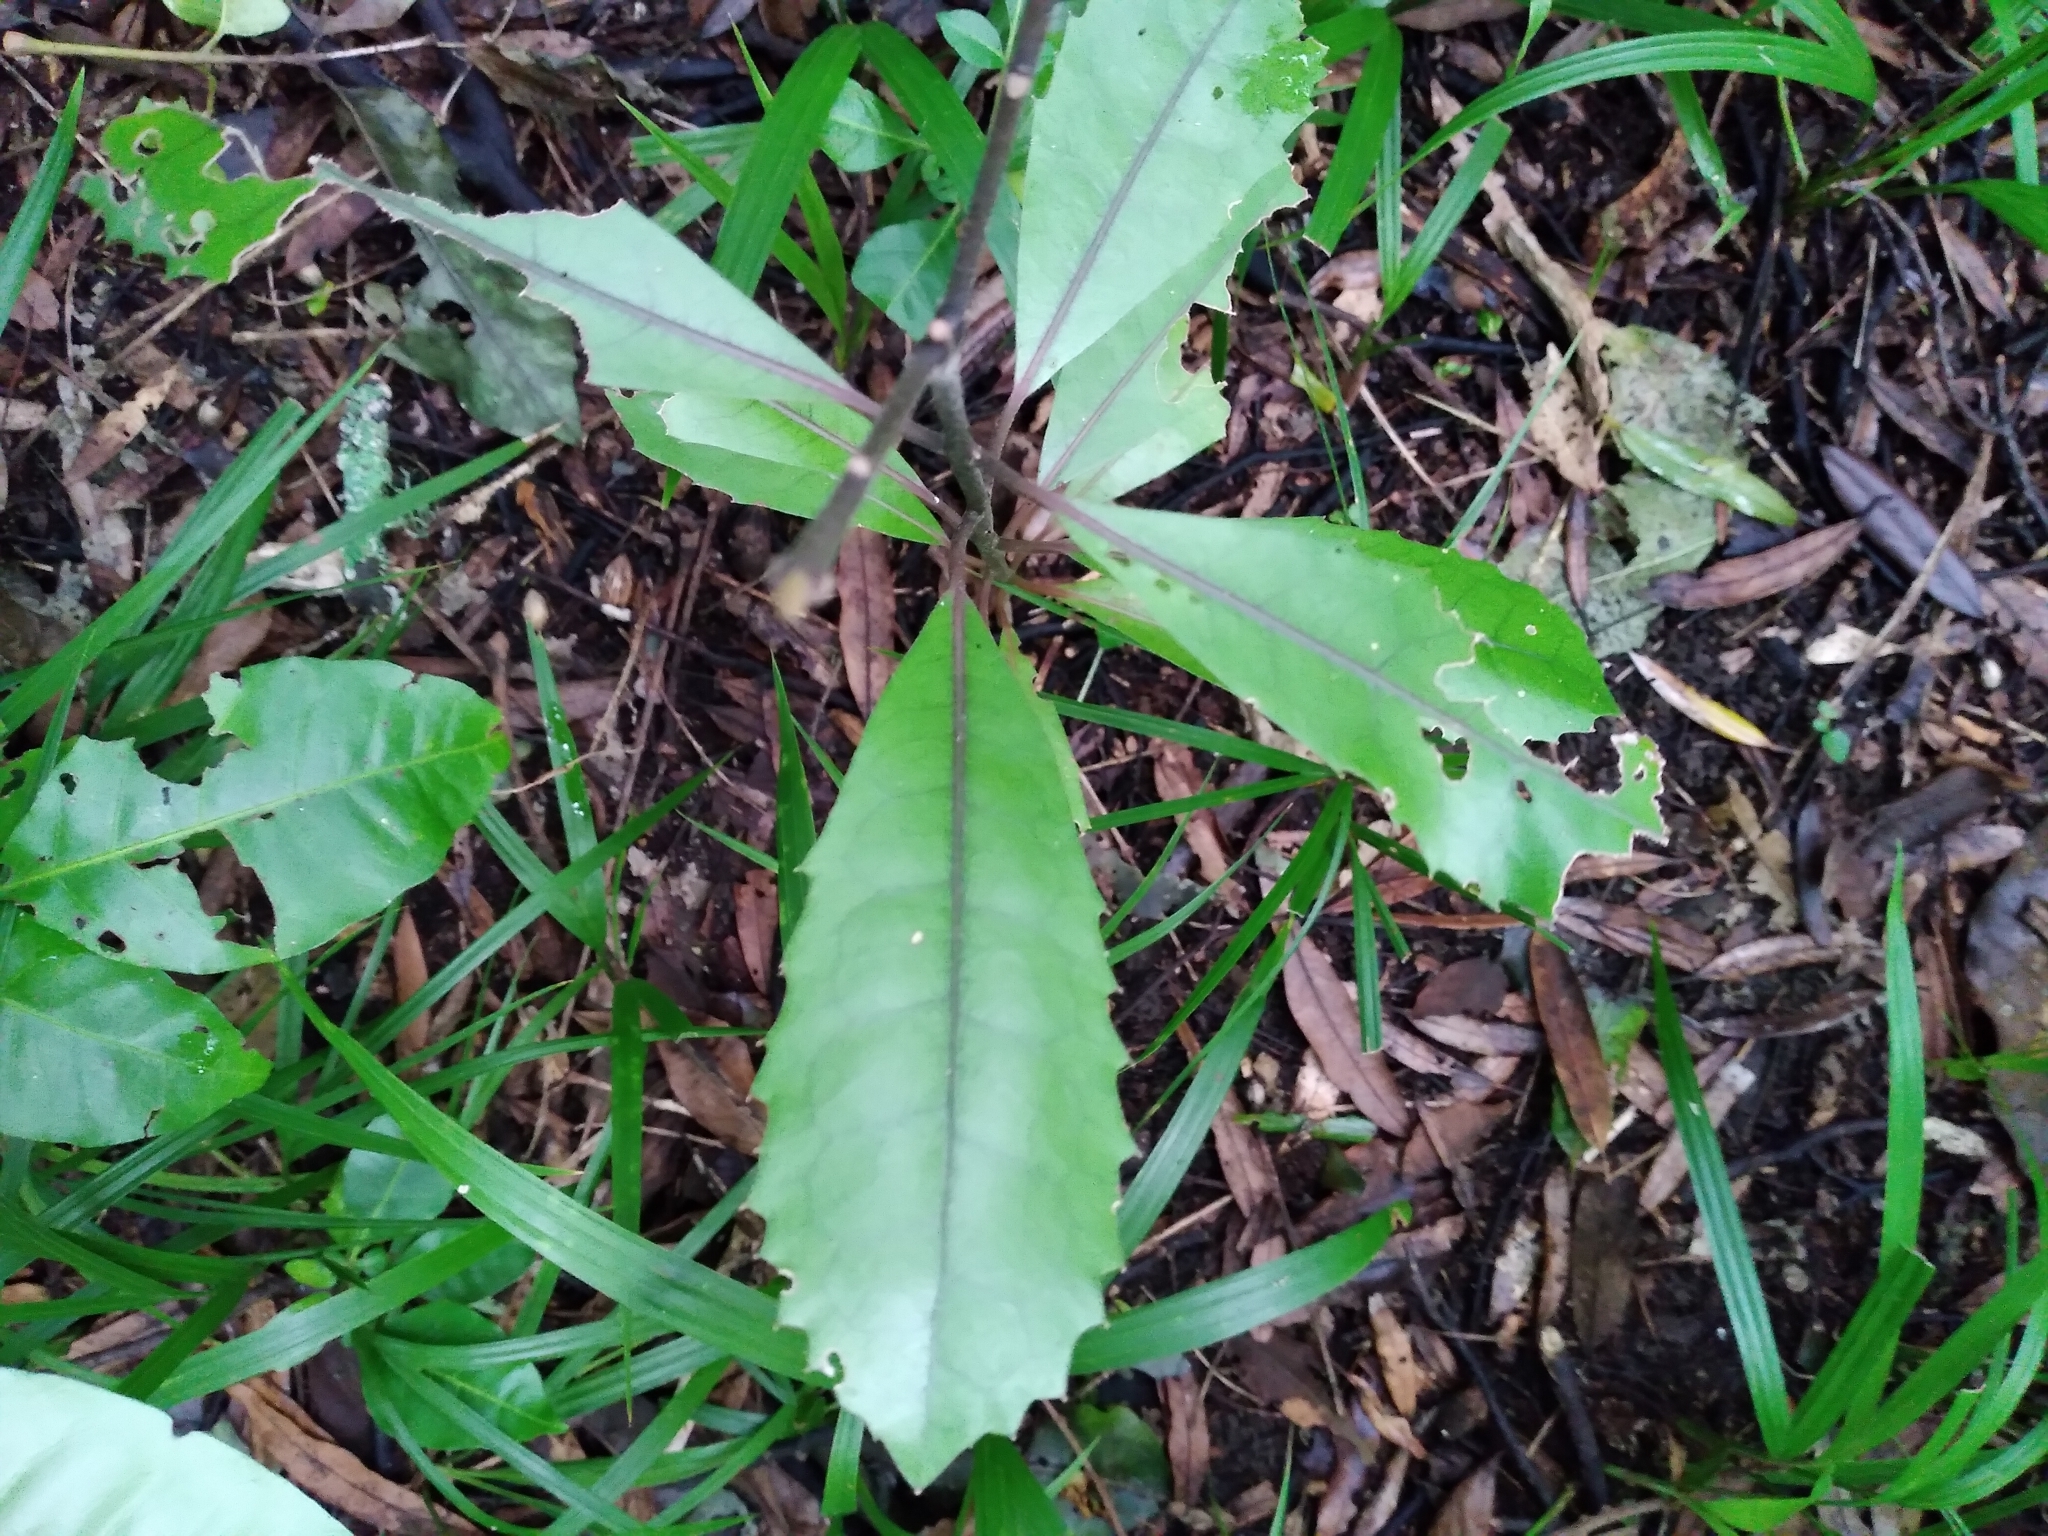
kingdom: Plantae
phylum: Tracheophyta
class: Magnoliopsida
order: Laurales
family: Monimiaceae
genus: Hedycarya
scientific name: Hedycarya arborea
